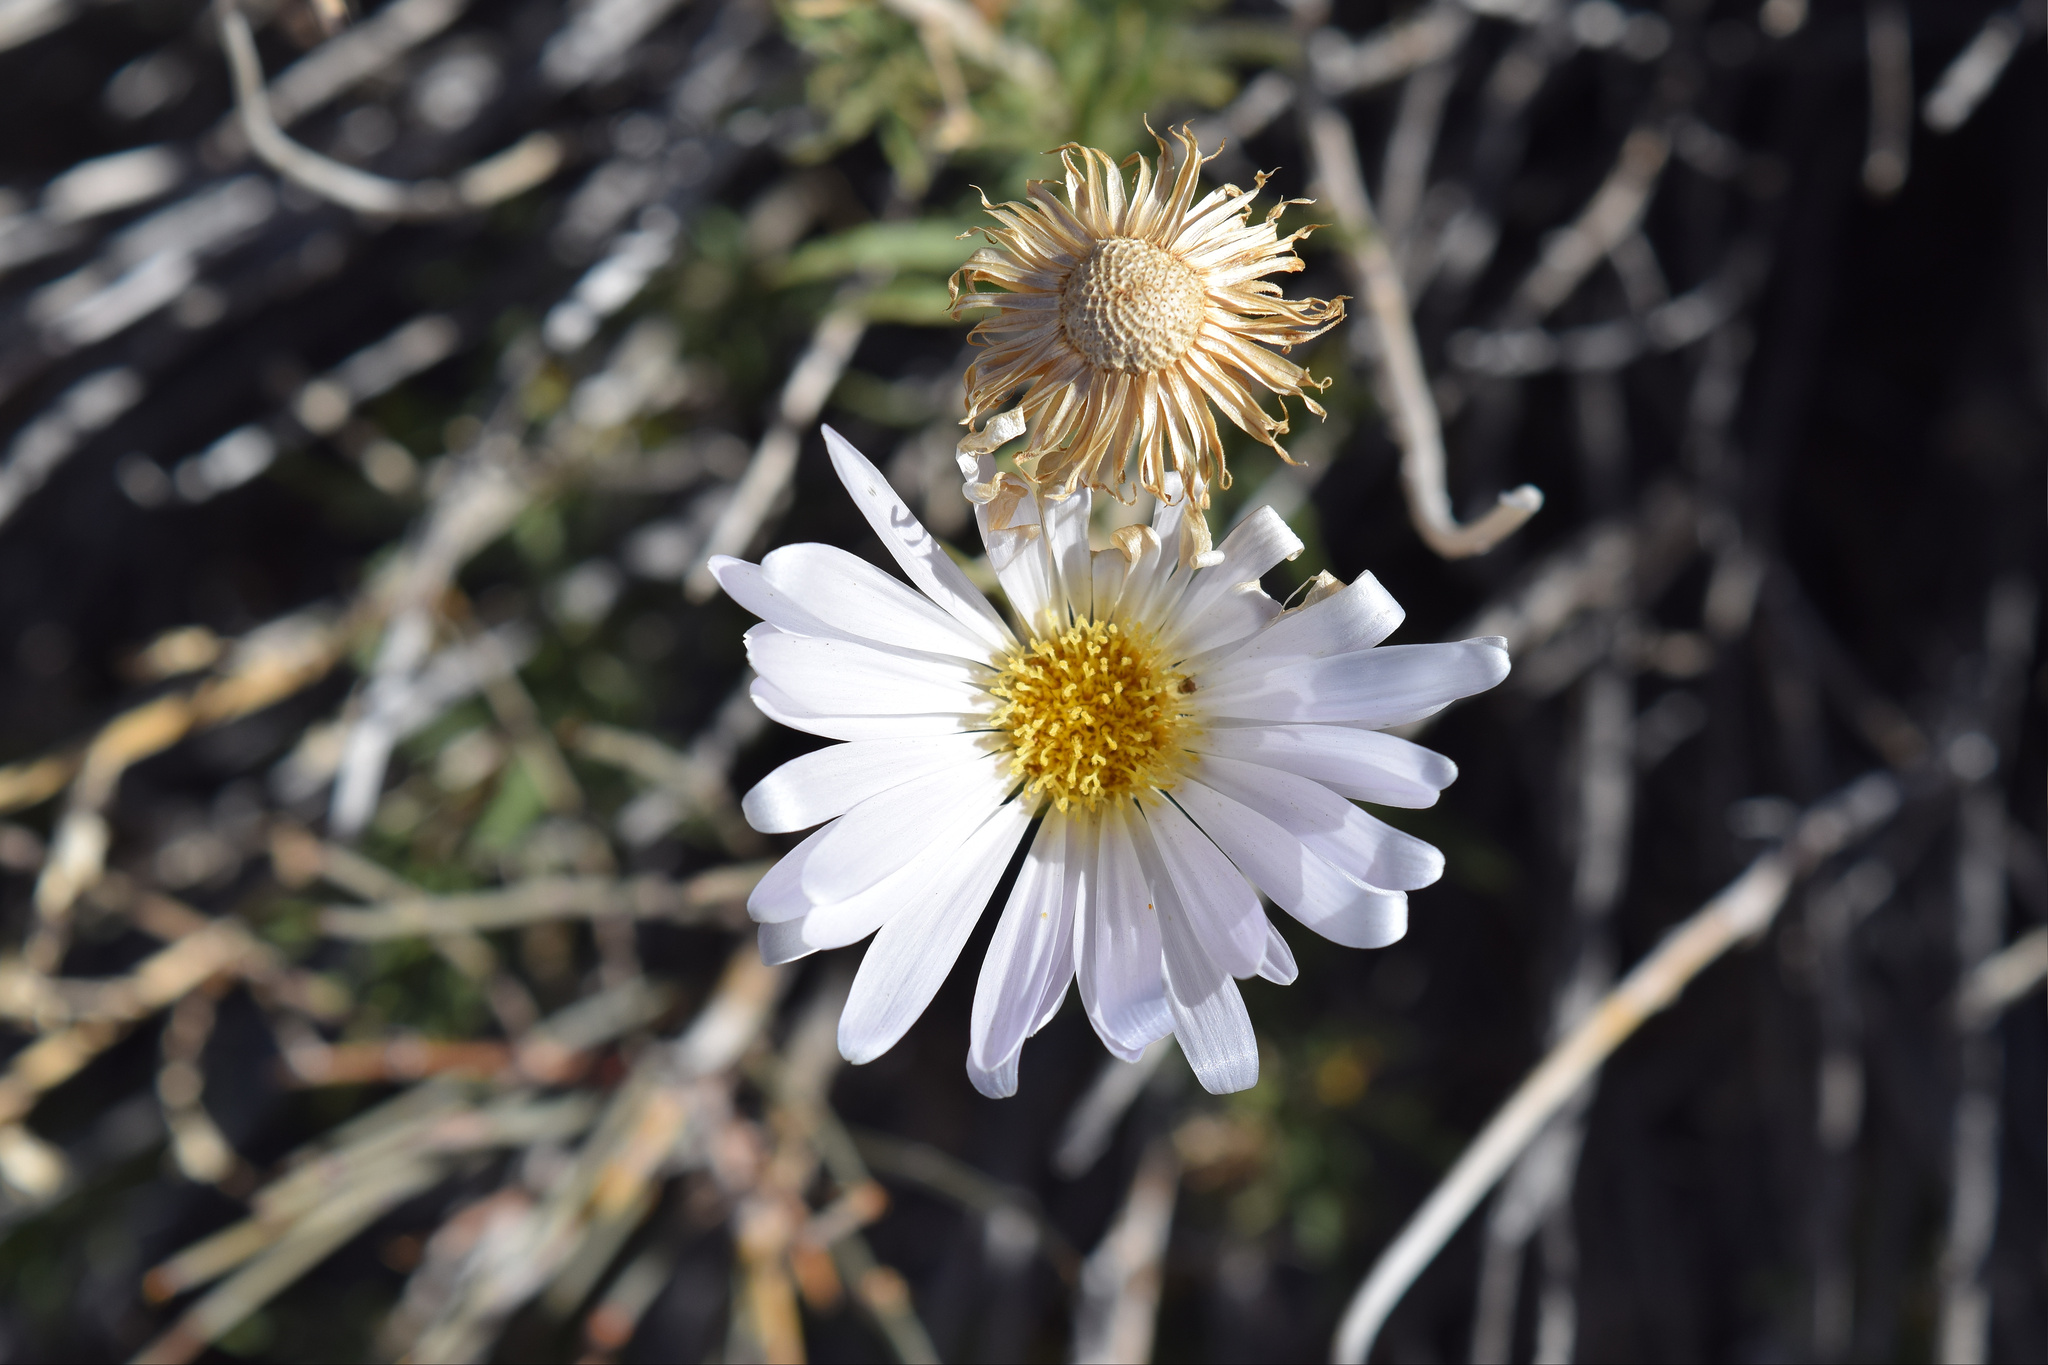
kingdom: Plantae
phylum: Tracheophyta
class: Magnoliopsida
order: Asterales
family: Asteraceae
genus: Xylorhiza
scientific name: Xylorhiza tortifolia
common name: Hurt-leaf woody-aster
